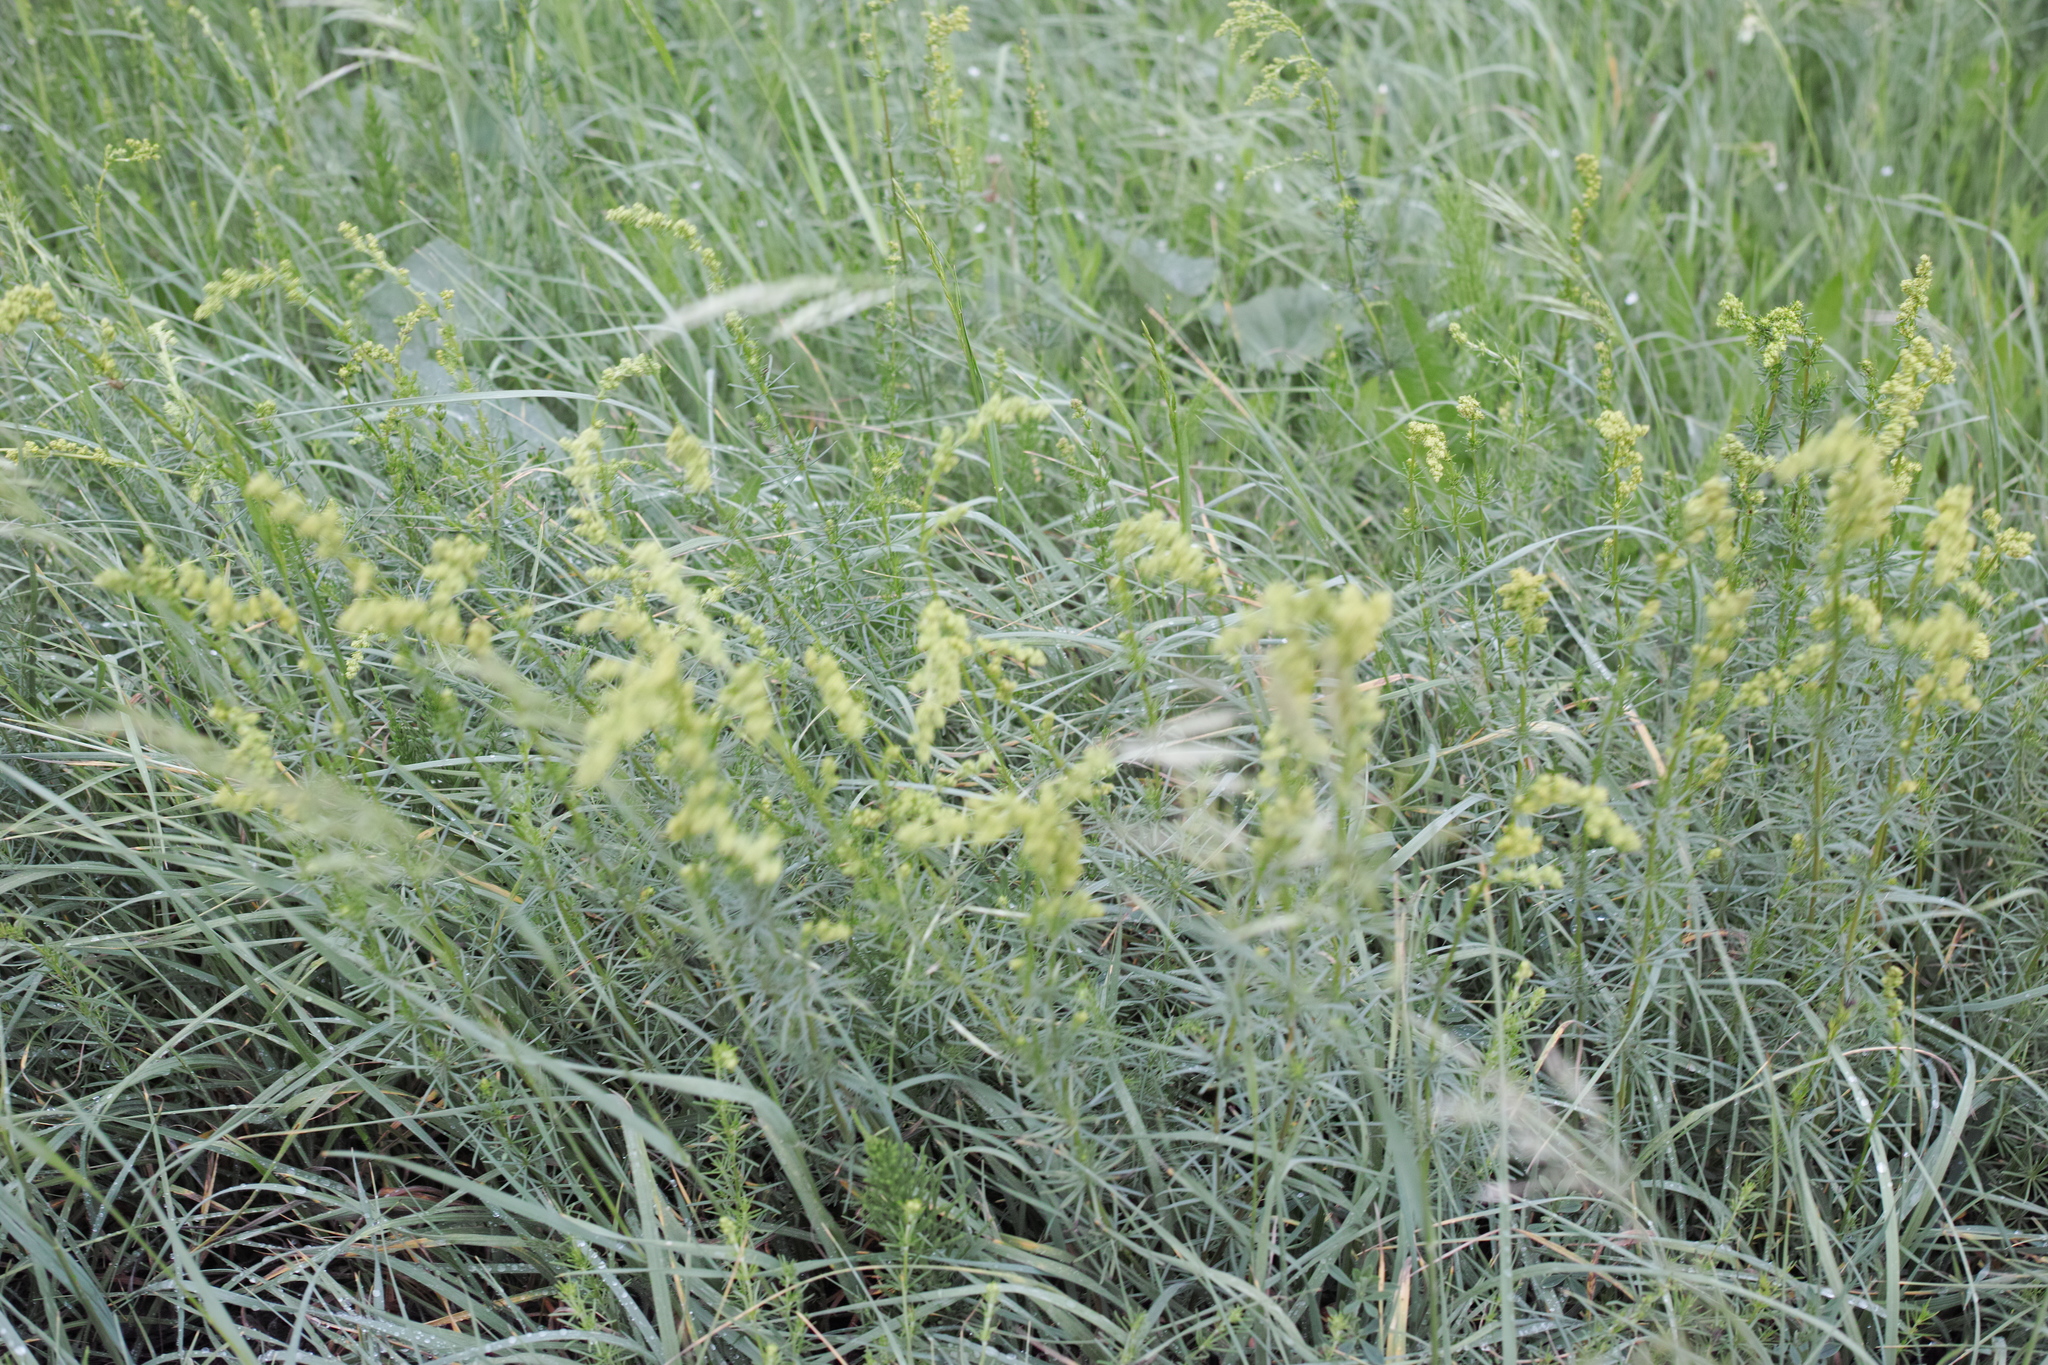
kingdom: Plantae
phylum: Tracheophyta
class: Magnoliopsida
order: Gentianales
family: Rubiaceae
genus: Galium
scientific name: Galium verum
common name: Lady's bedstraw
